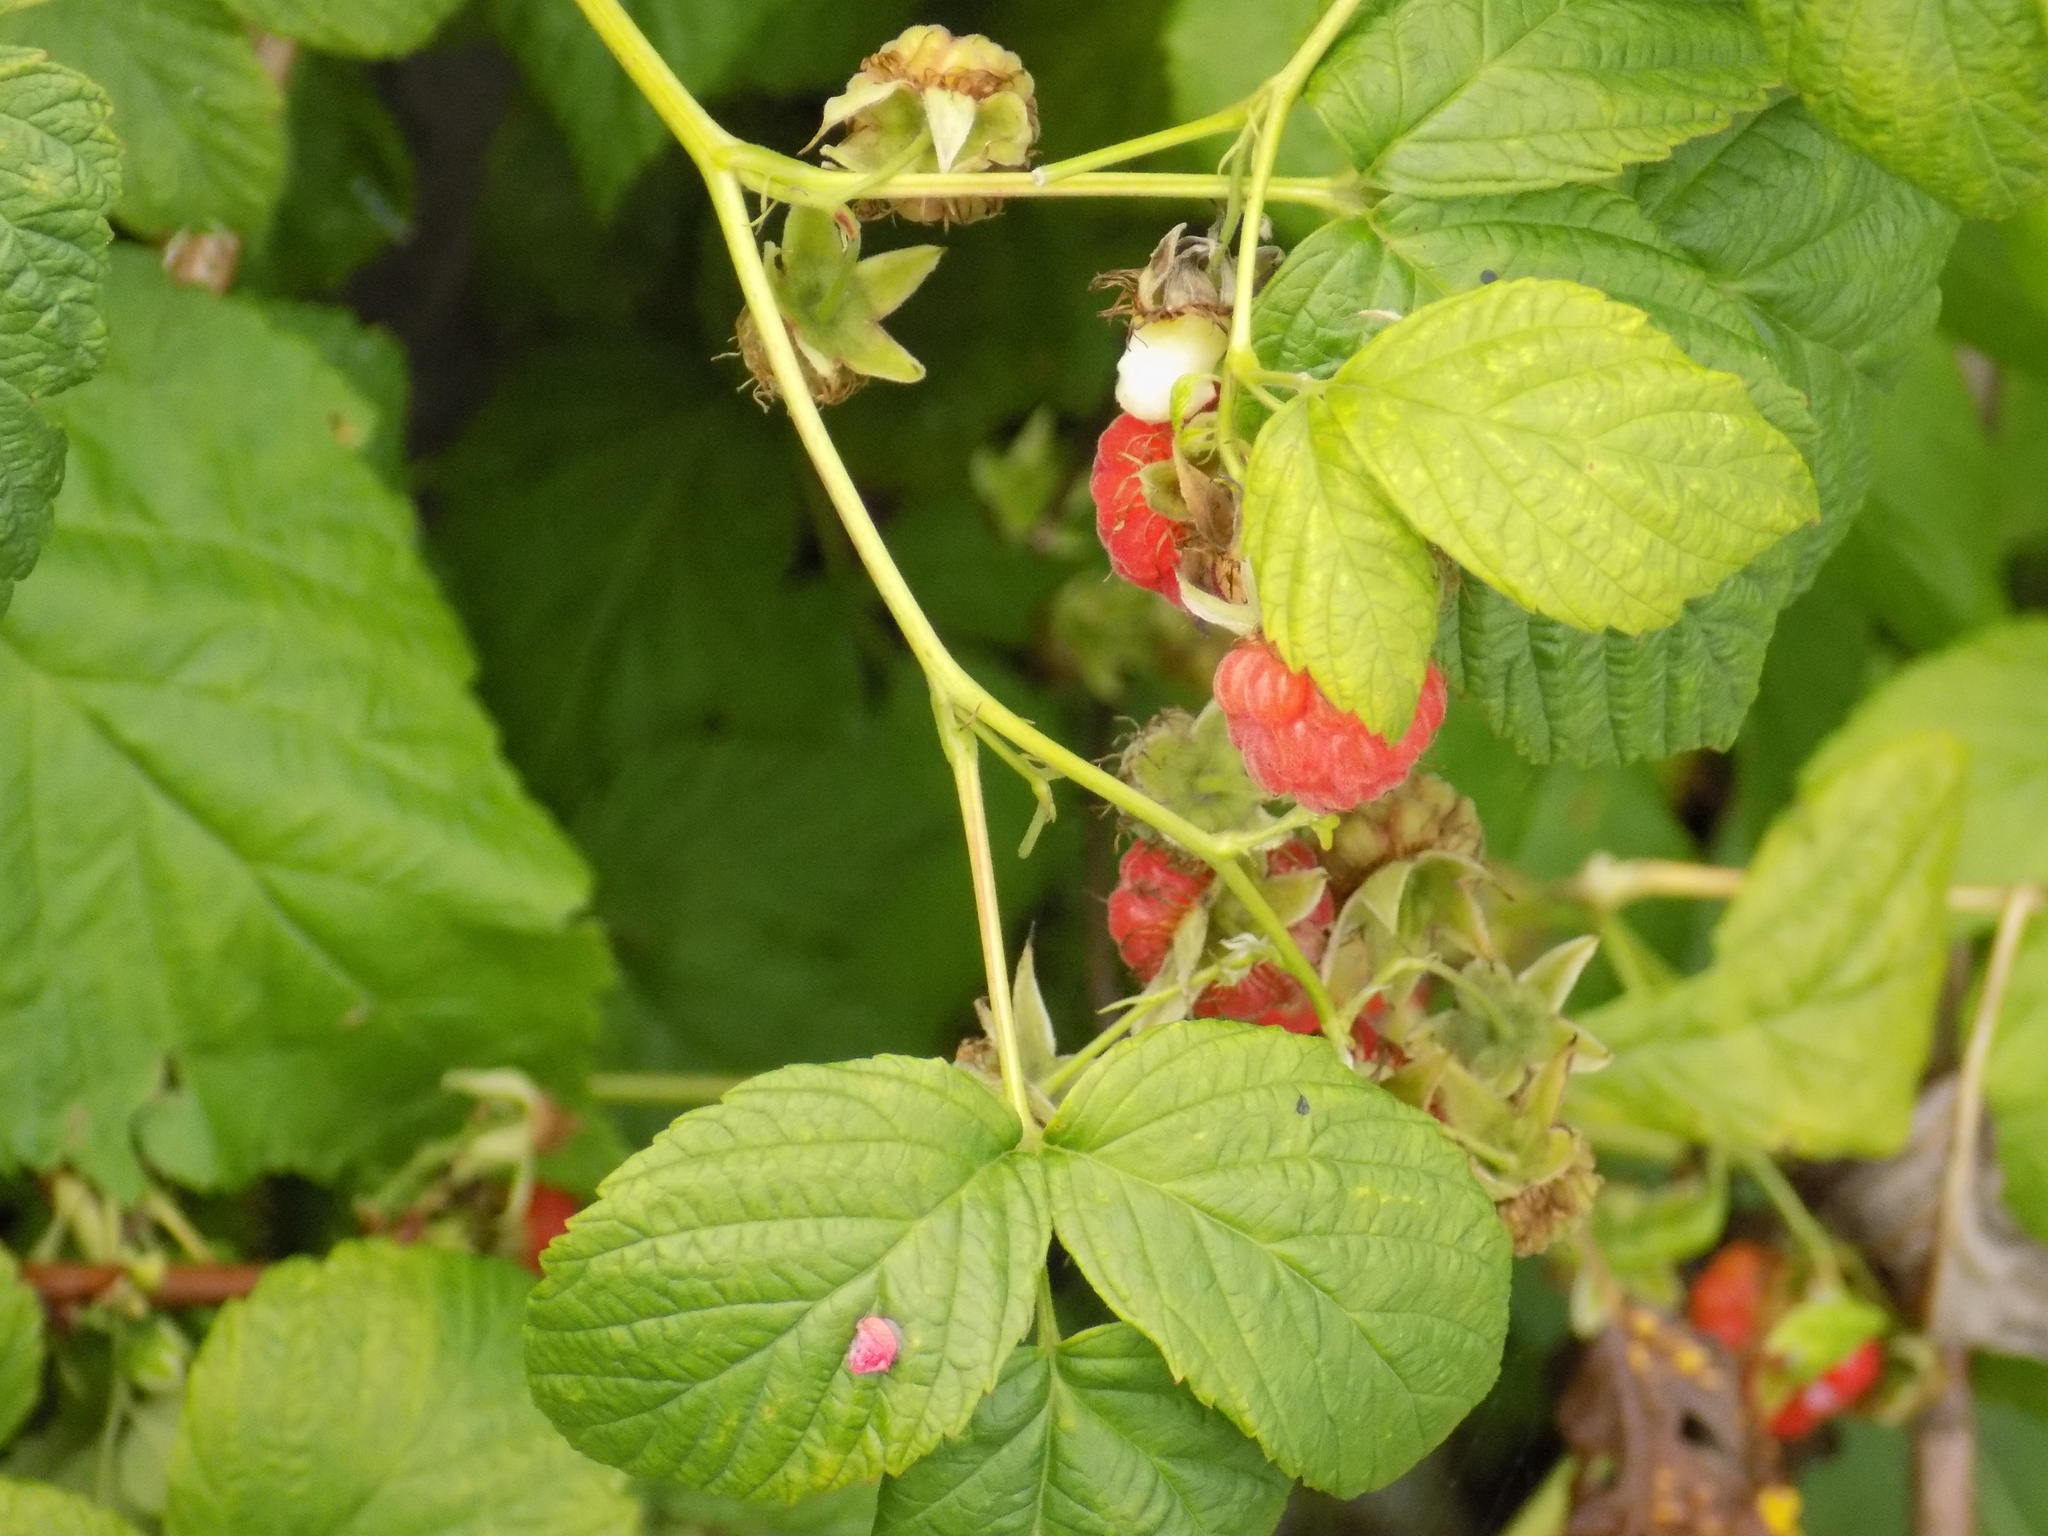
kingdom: Plantae
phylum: Tracheophyta
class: Magnoliopsida
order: Rosales
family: Rosaceae
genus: Rubus
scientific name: Rubus idaeus
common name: Raspberry
